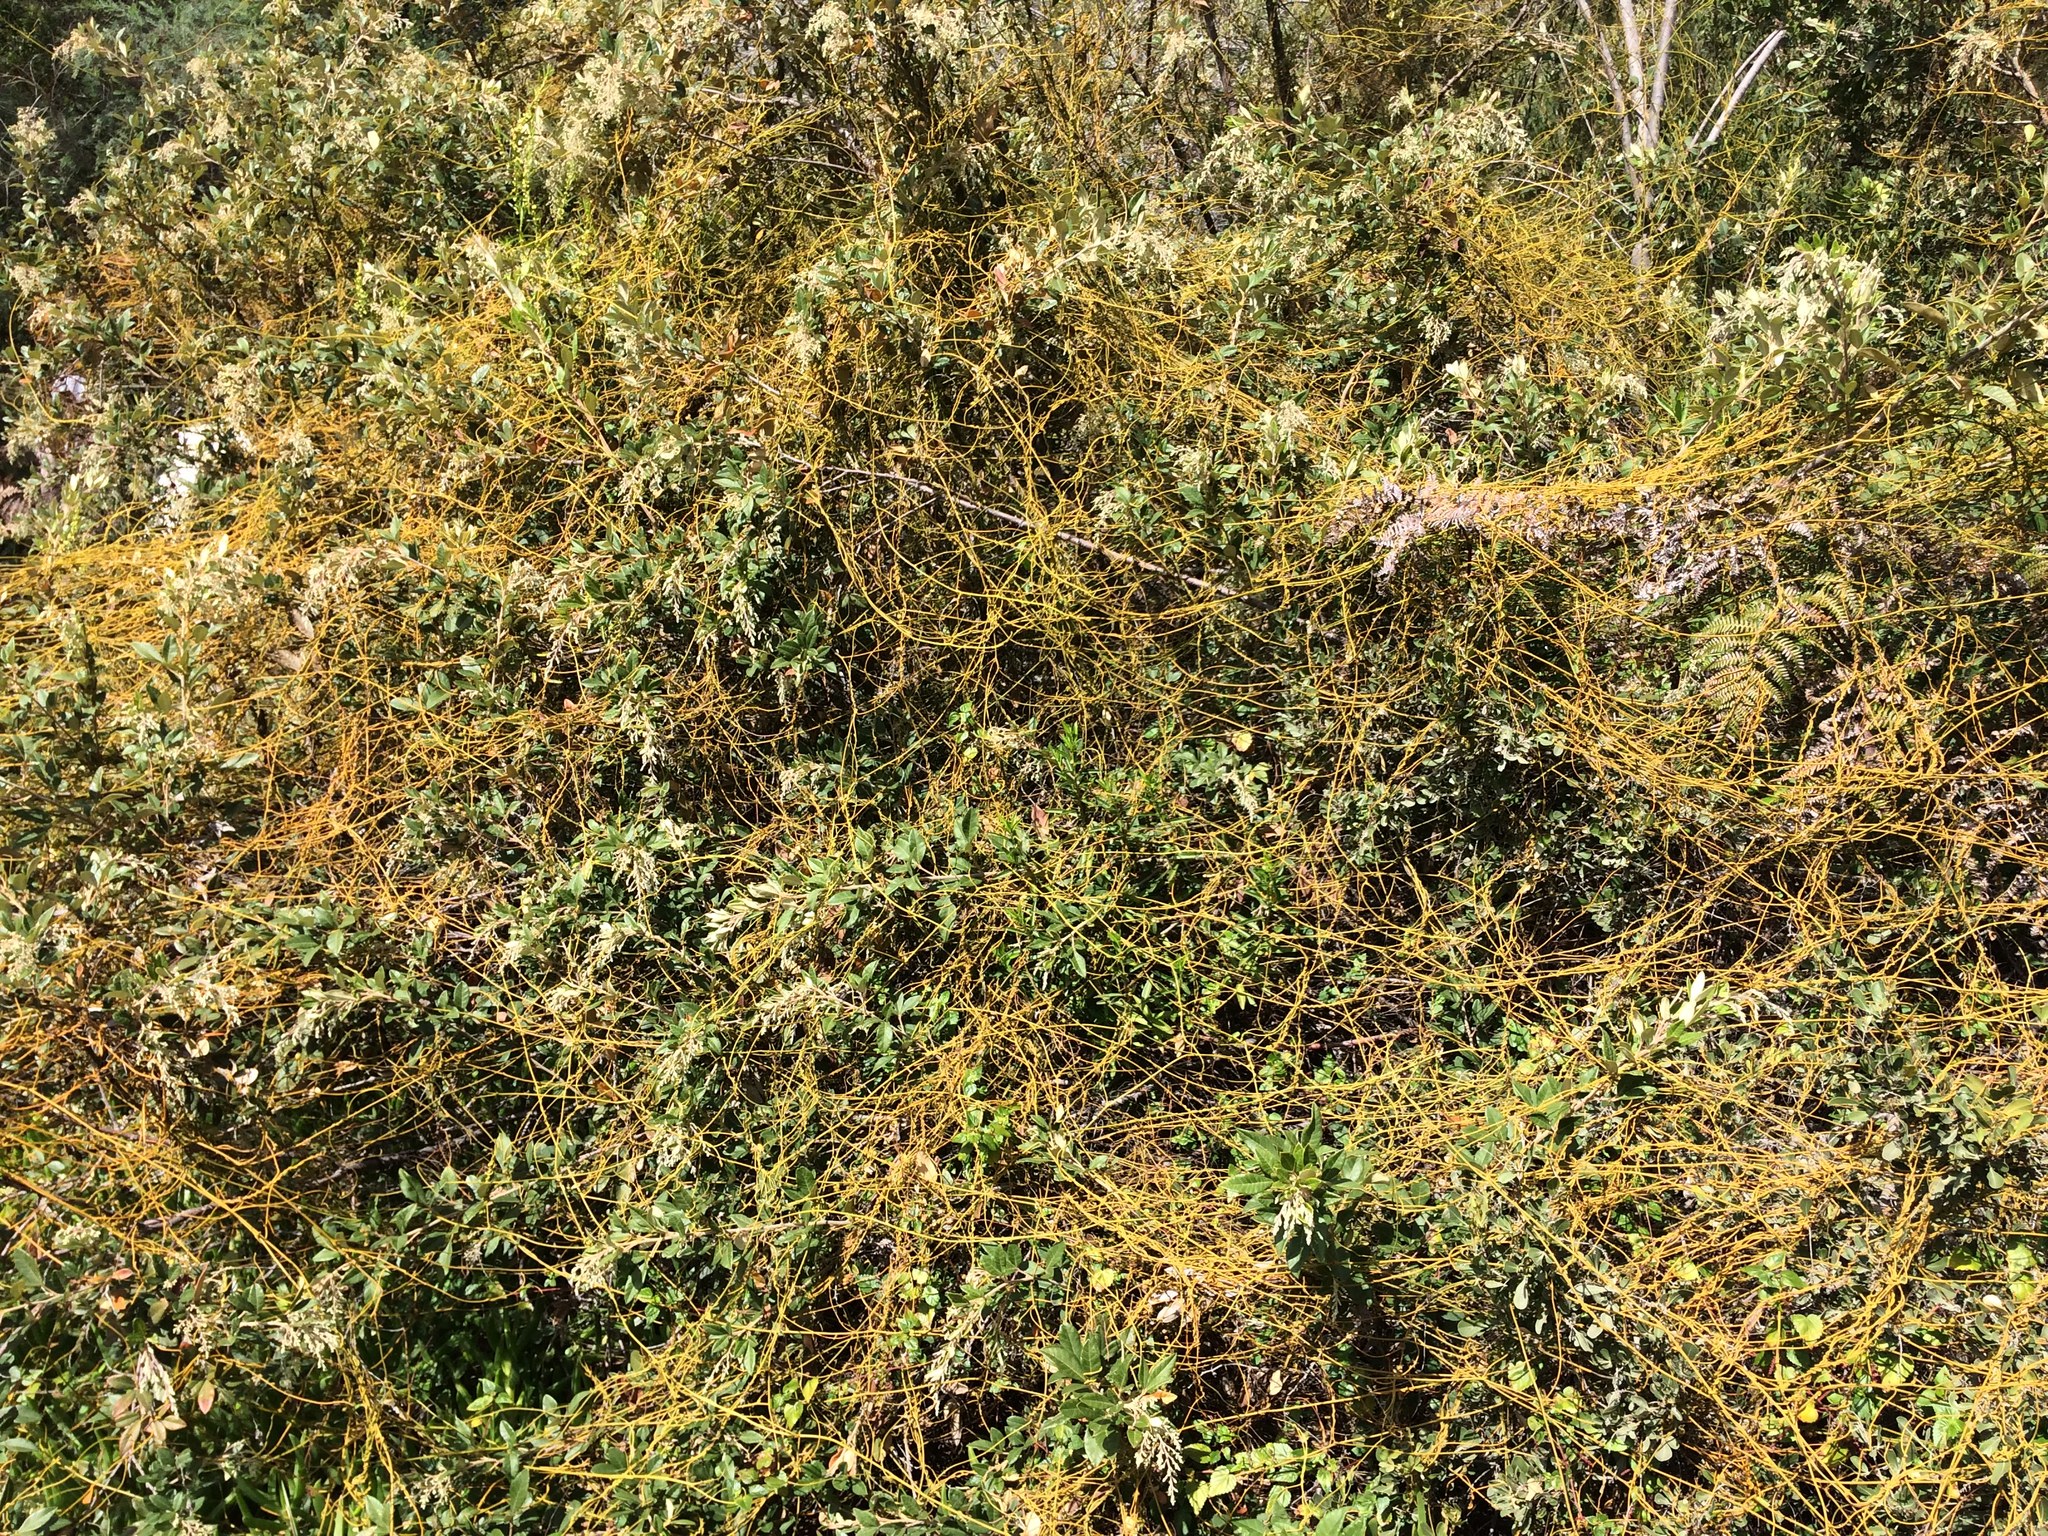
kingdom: Plantae
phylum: Tracheophyta
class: Magnoliopsida
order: Laurales
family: Lauraceae
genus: Cassytha
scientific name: Cassytha ciliolata
